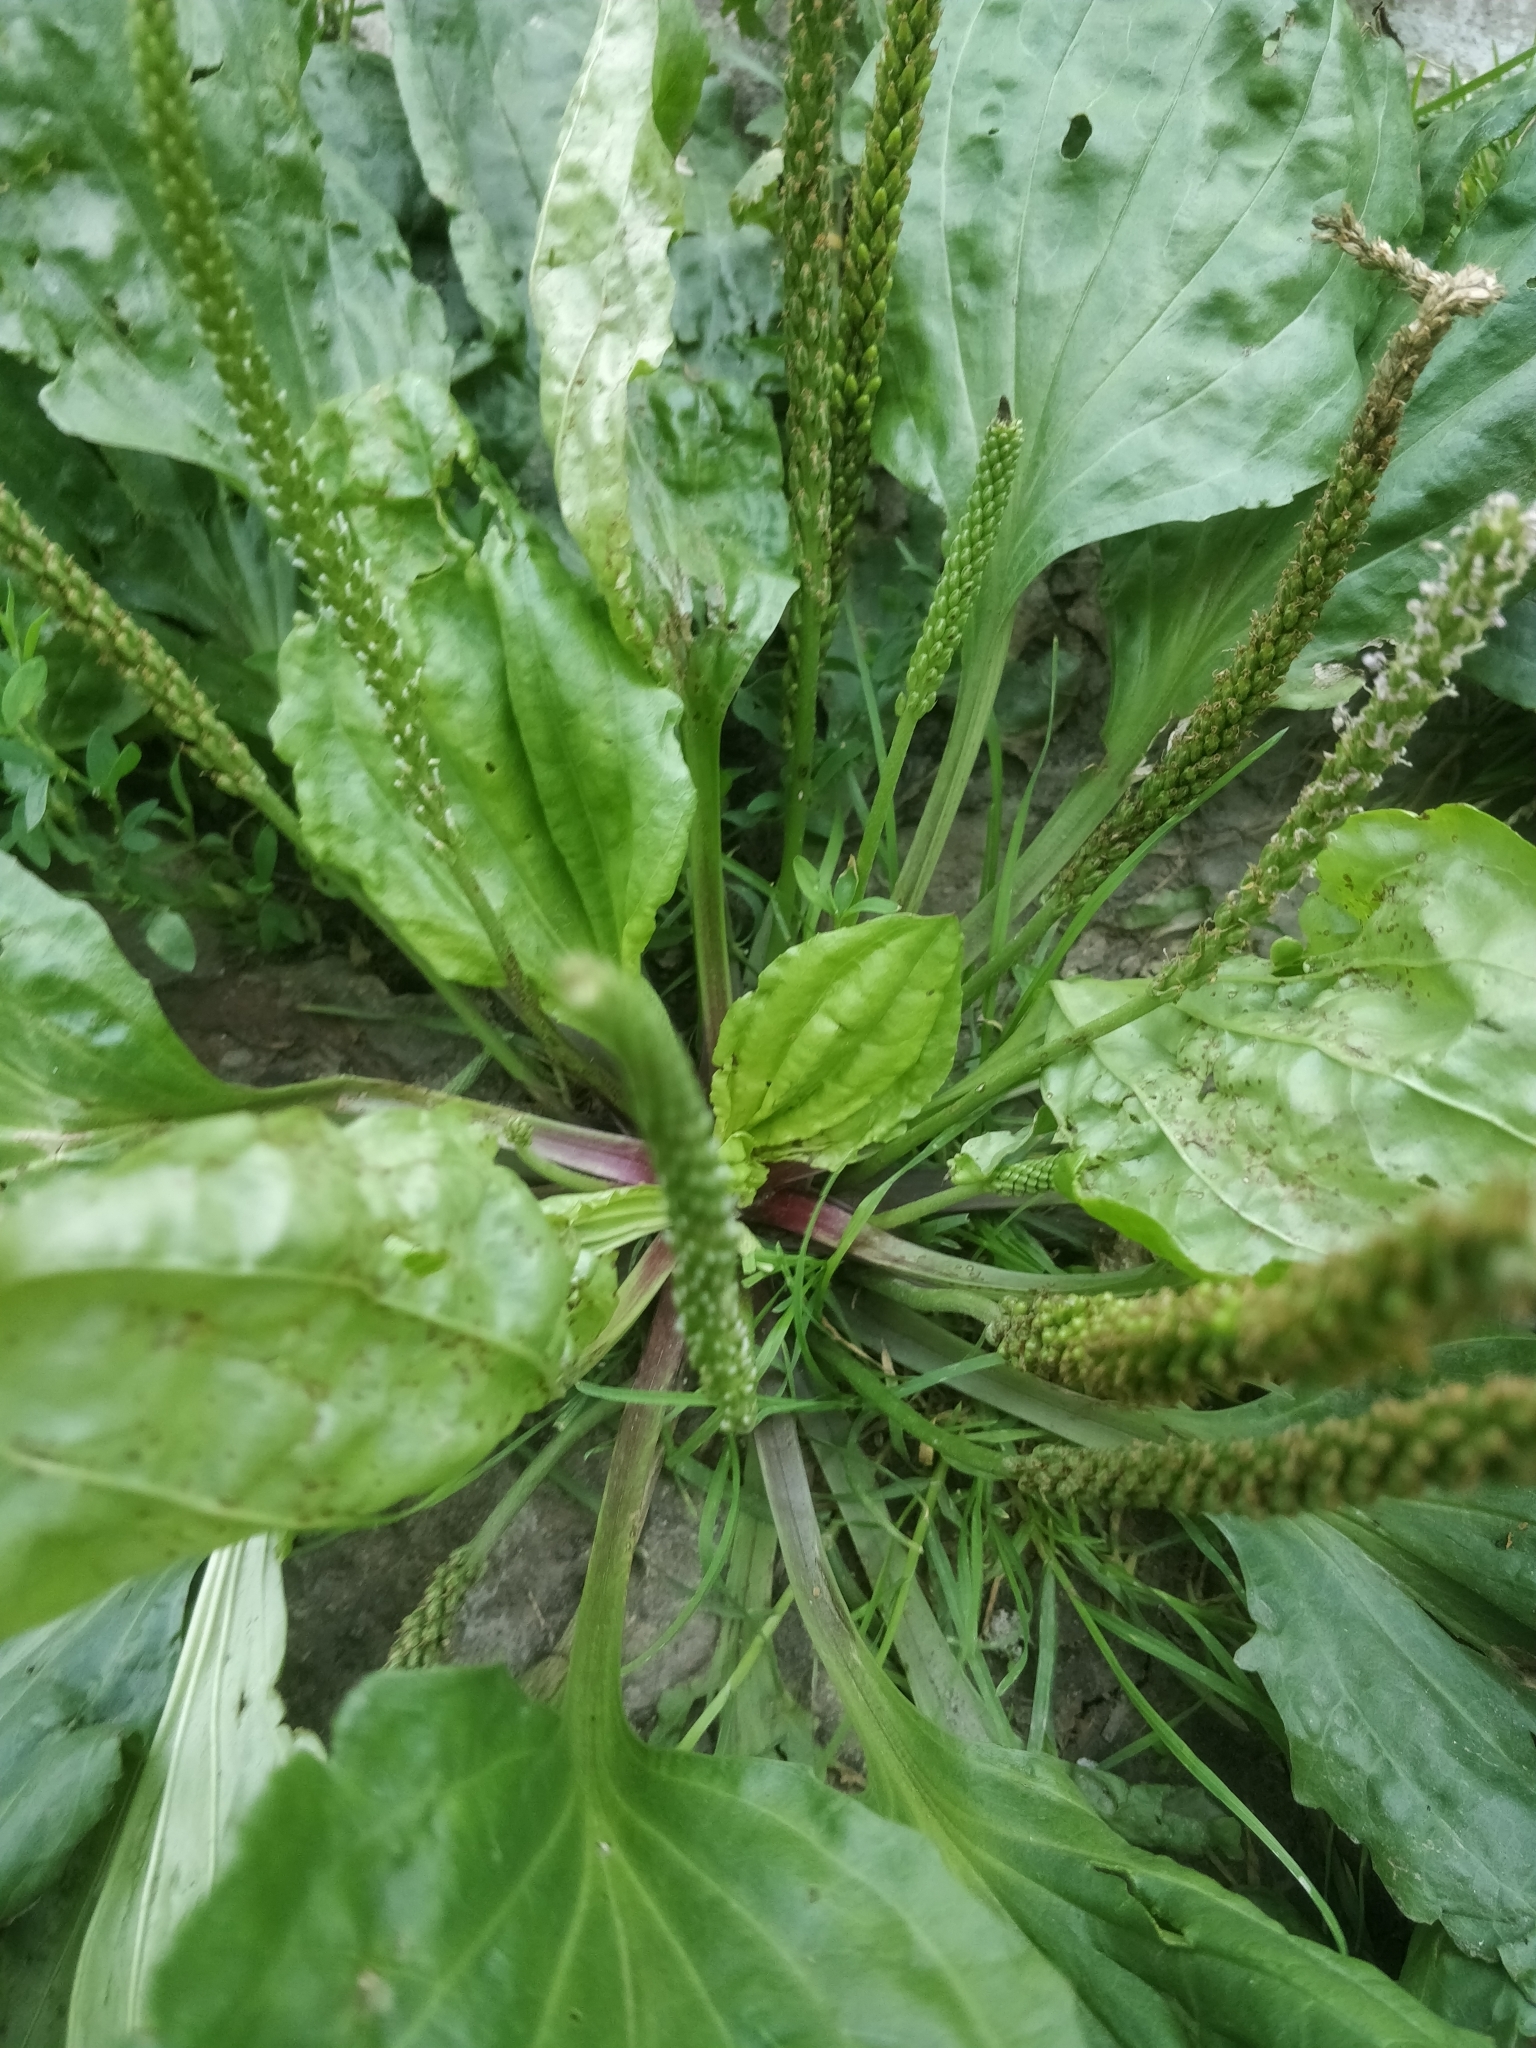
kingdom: Plantae
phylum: Tracheophyta
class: Magnoliopsida
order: Lamiales
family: Plantaginaceae
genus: Plantago
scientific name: Plantago rugelii
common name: American plantain
